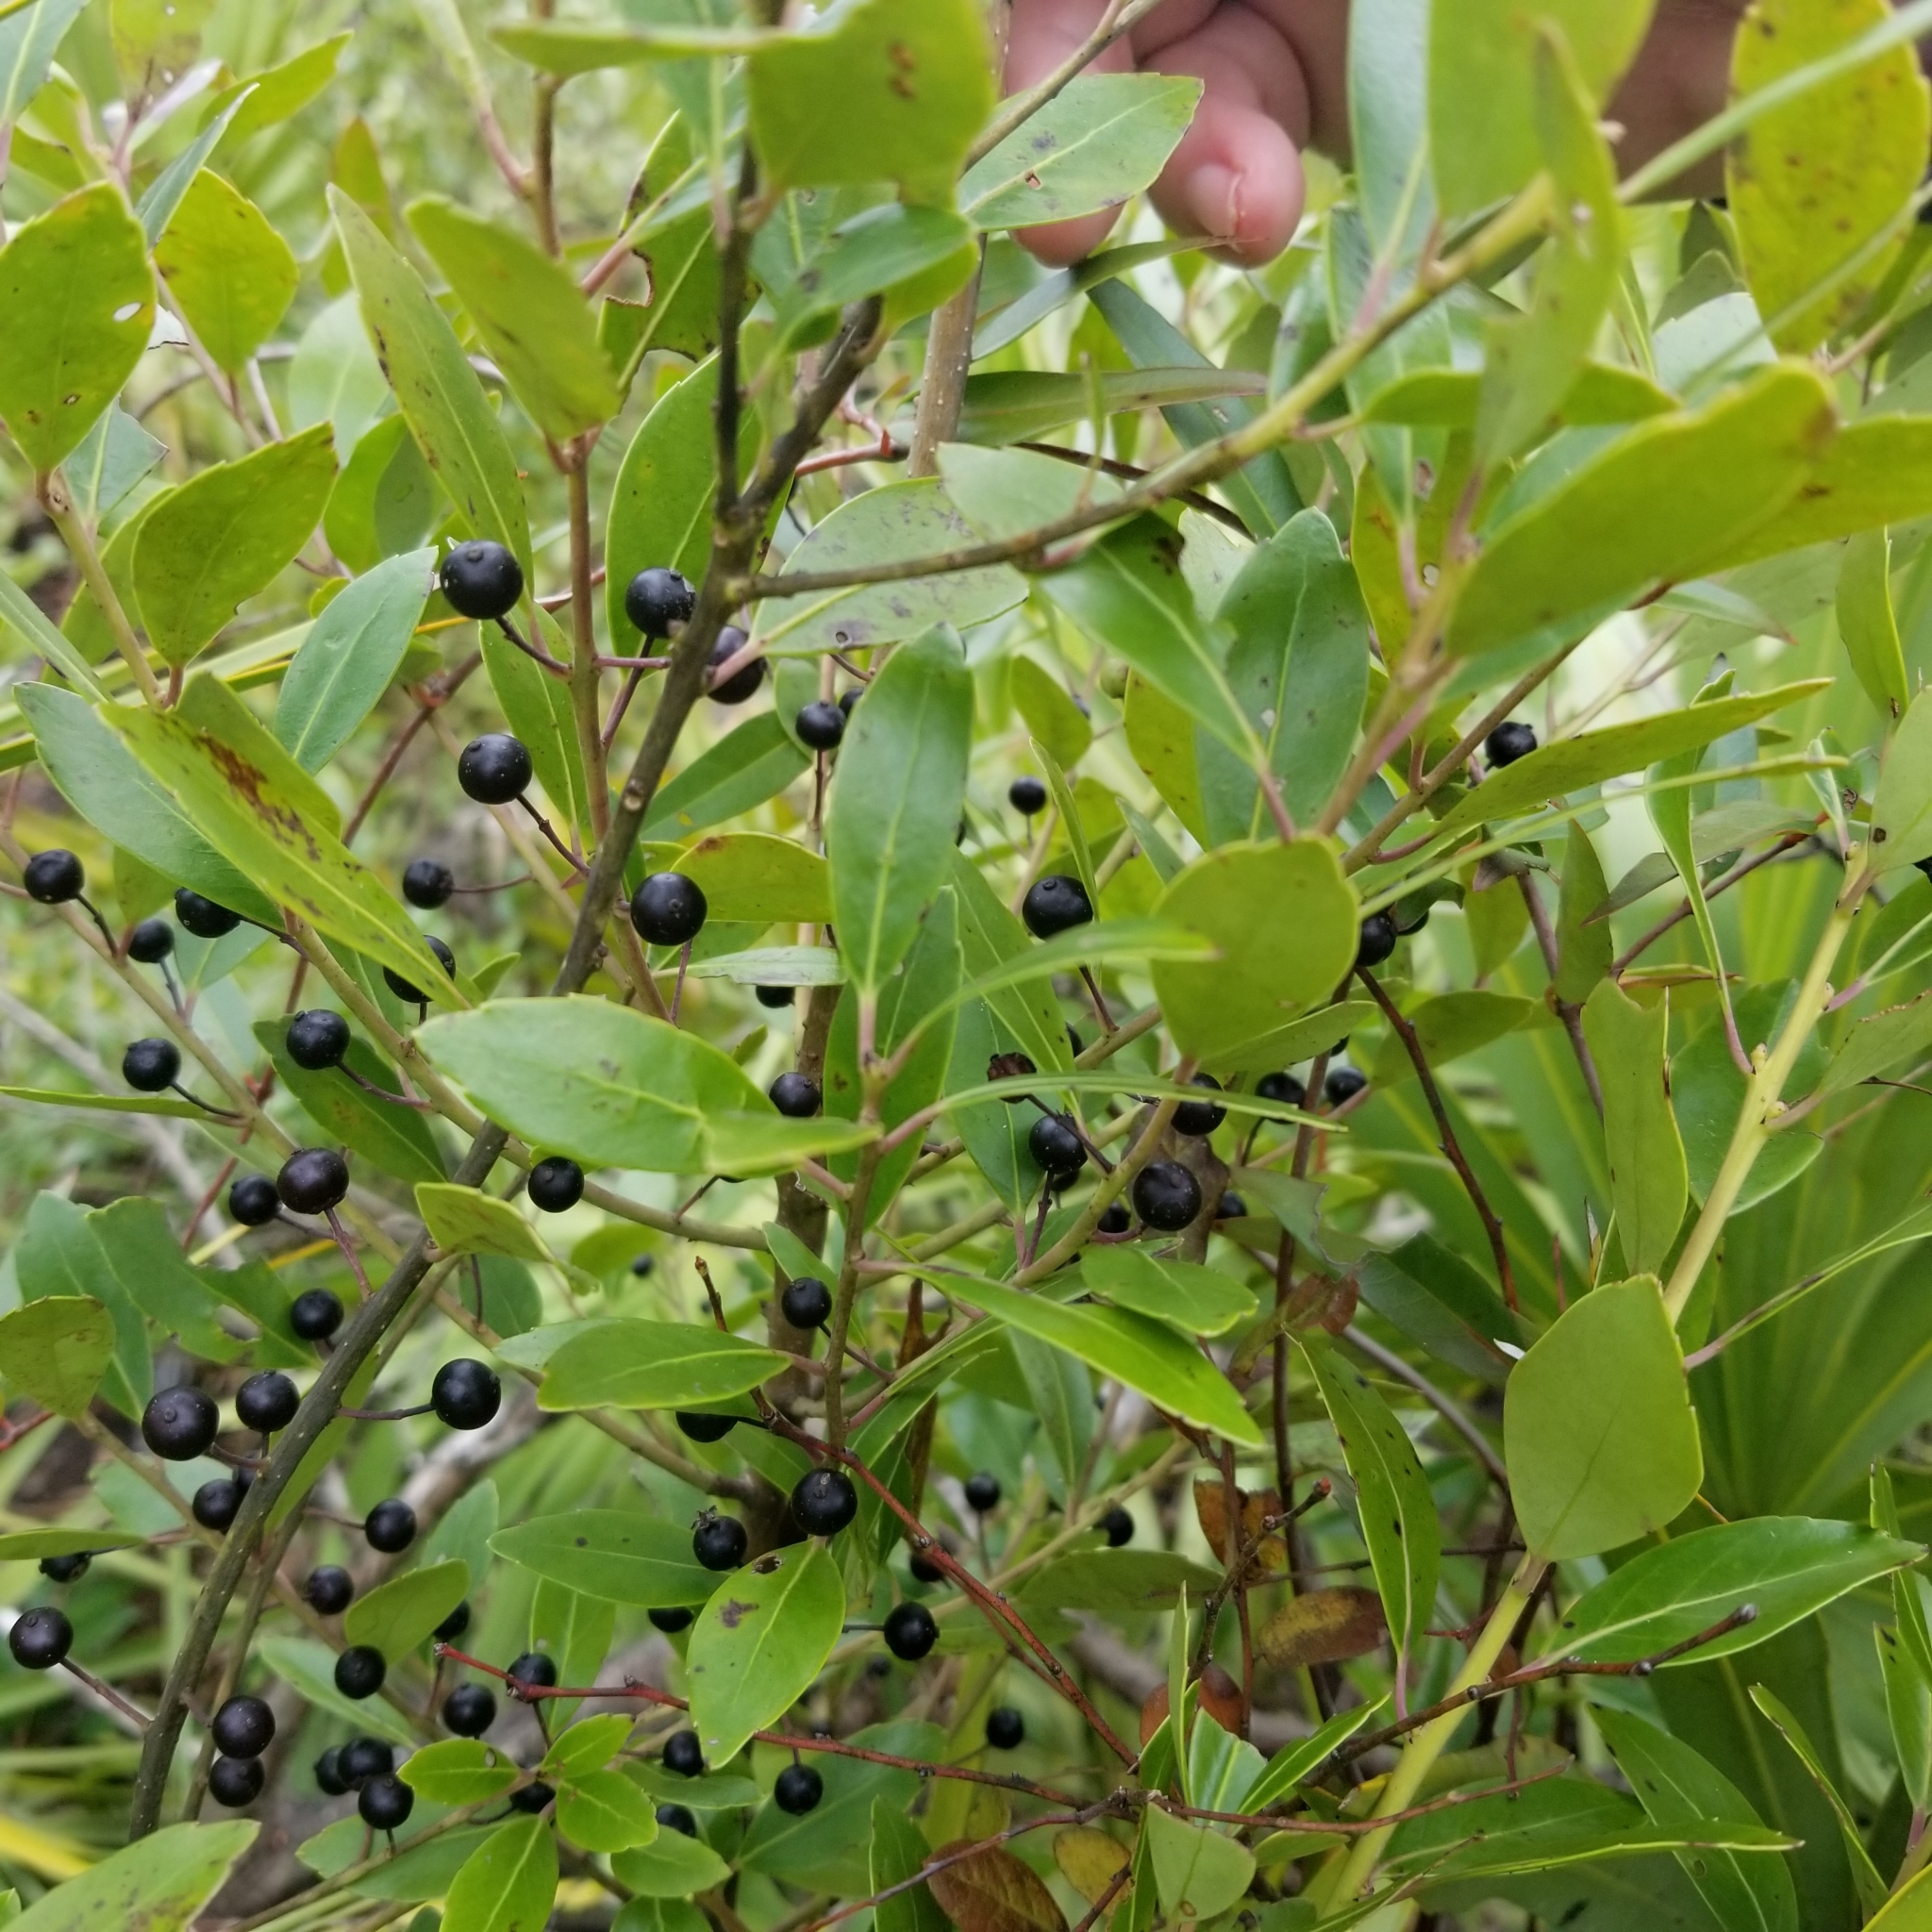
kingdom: Plantae
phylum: Tracheophyta
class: Magnoliopsida
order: Aquifoliales
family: Aquifoliaceae
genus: Ilex
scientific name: Ilex glabra
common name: Bitter gallberry
